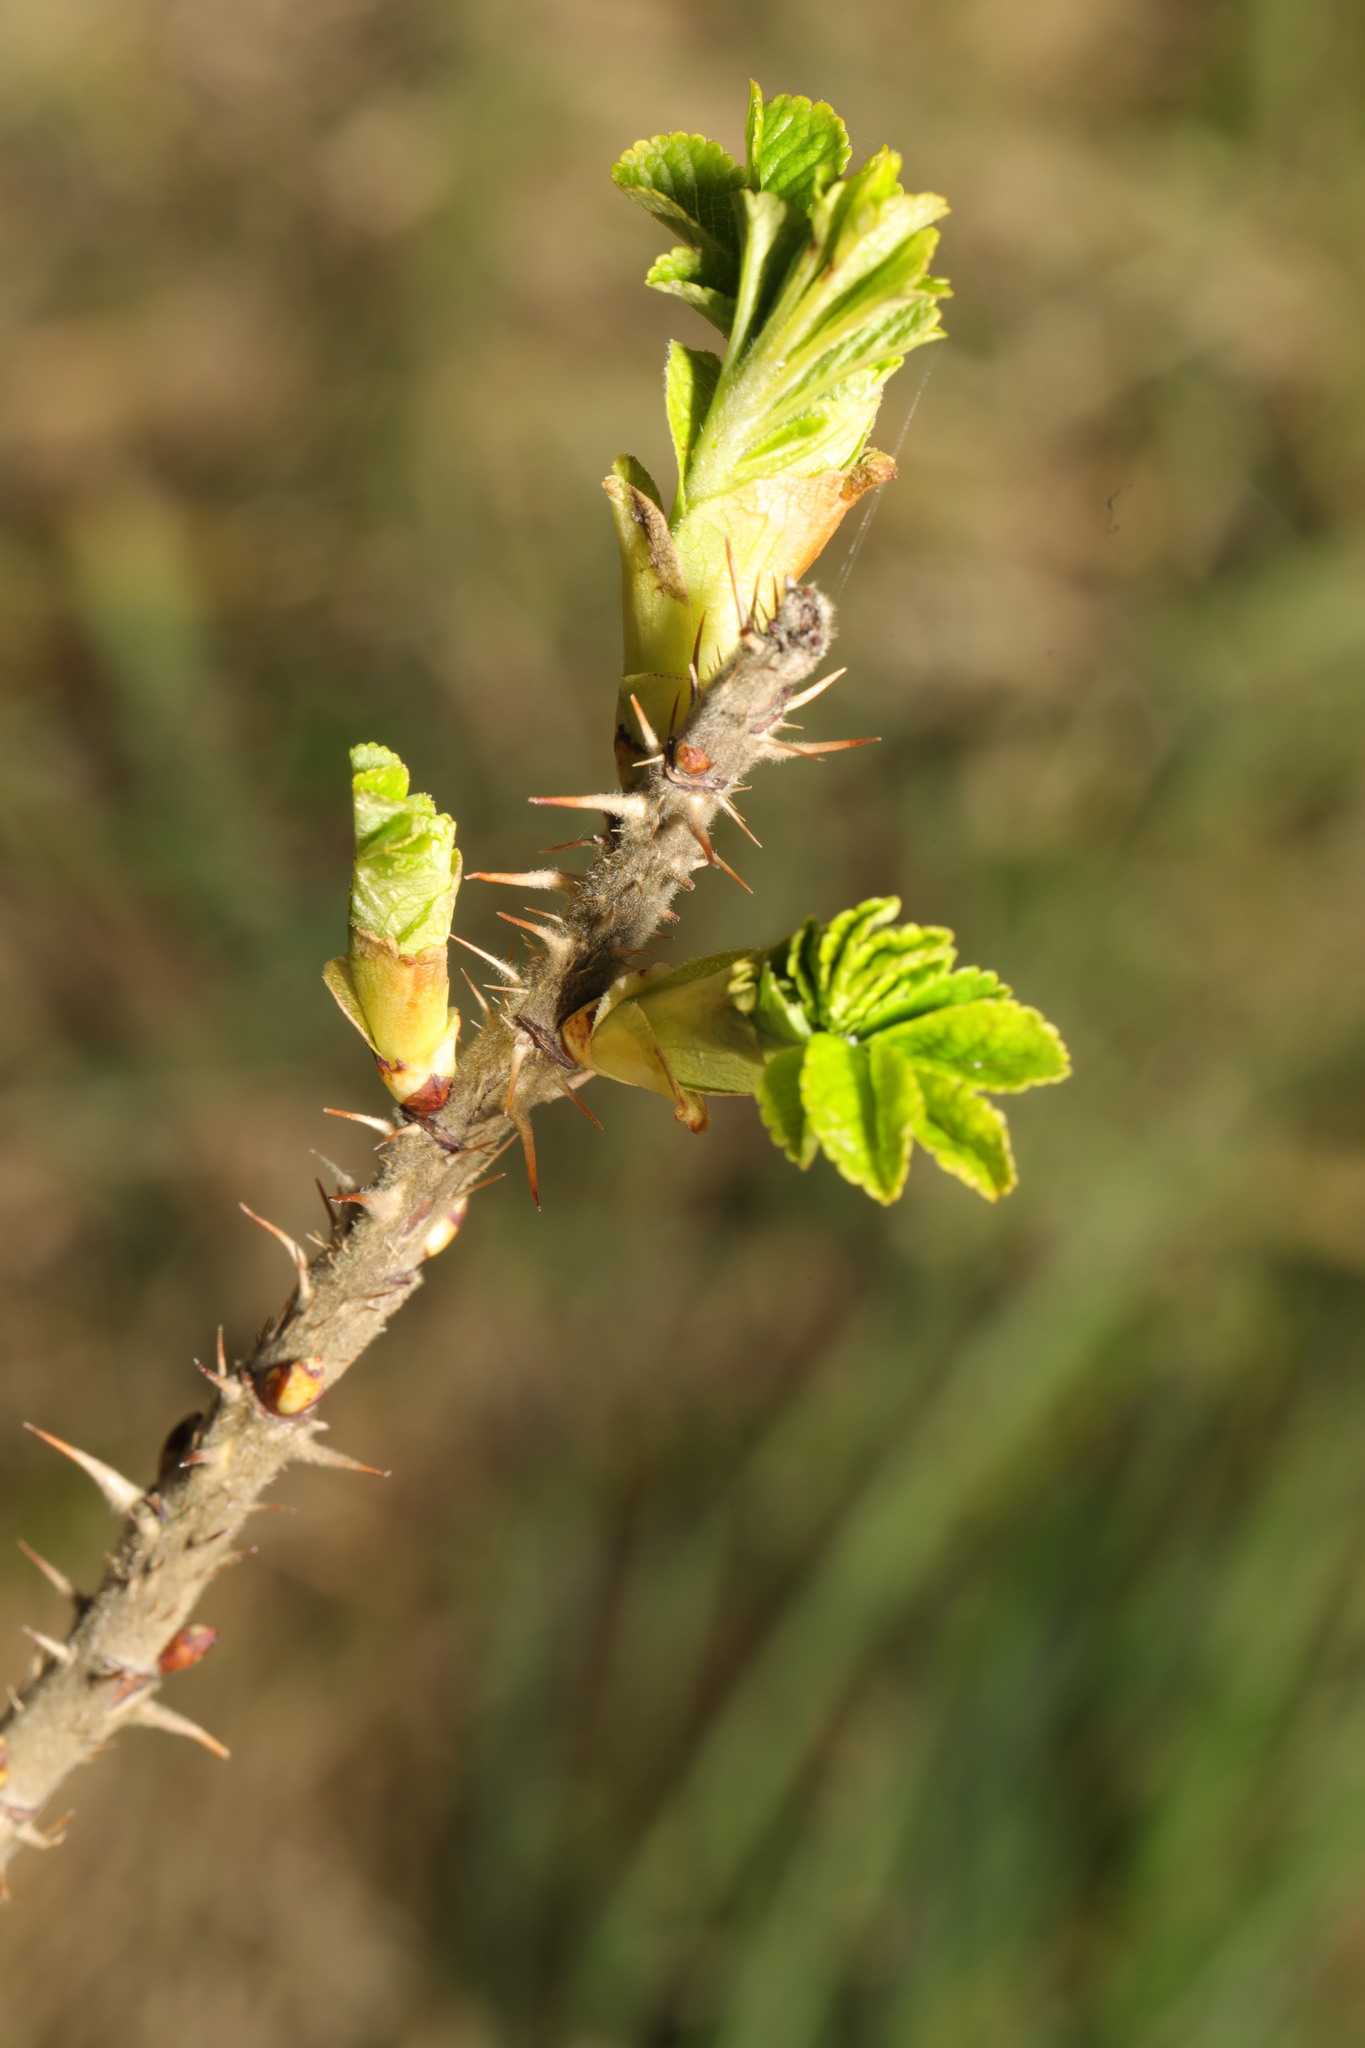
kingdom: Plantae
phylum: Tracheophyta
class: Magnoliopsida
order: Rosales
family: Rosaceae
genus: Rosa
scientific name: Rosa rugosa
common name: Japanese rose
